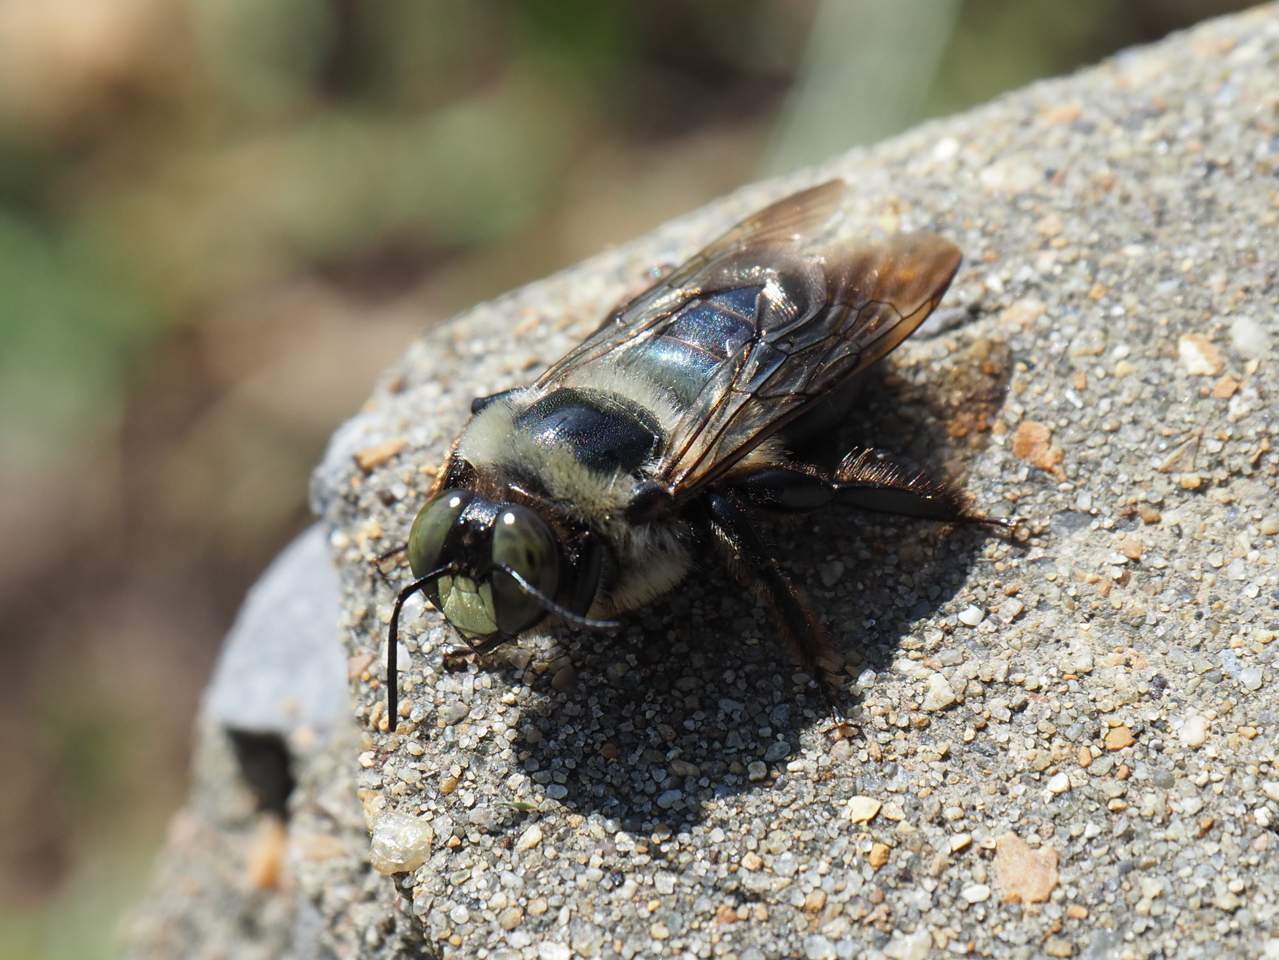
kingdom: Animalia
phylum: Arthropoda
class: Insecta
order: Hymenoptera
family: Apidae
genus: Xylocopa
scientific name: Xylocopa virginica
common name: Carpenter bee
